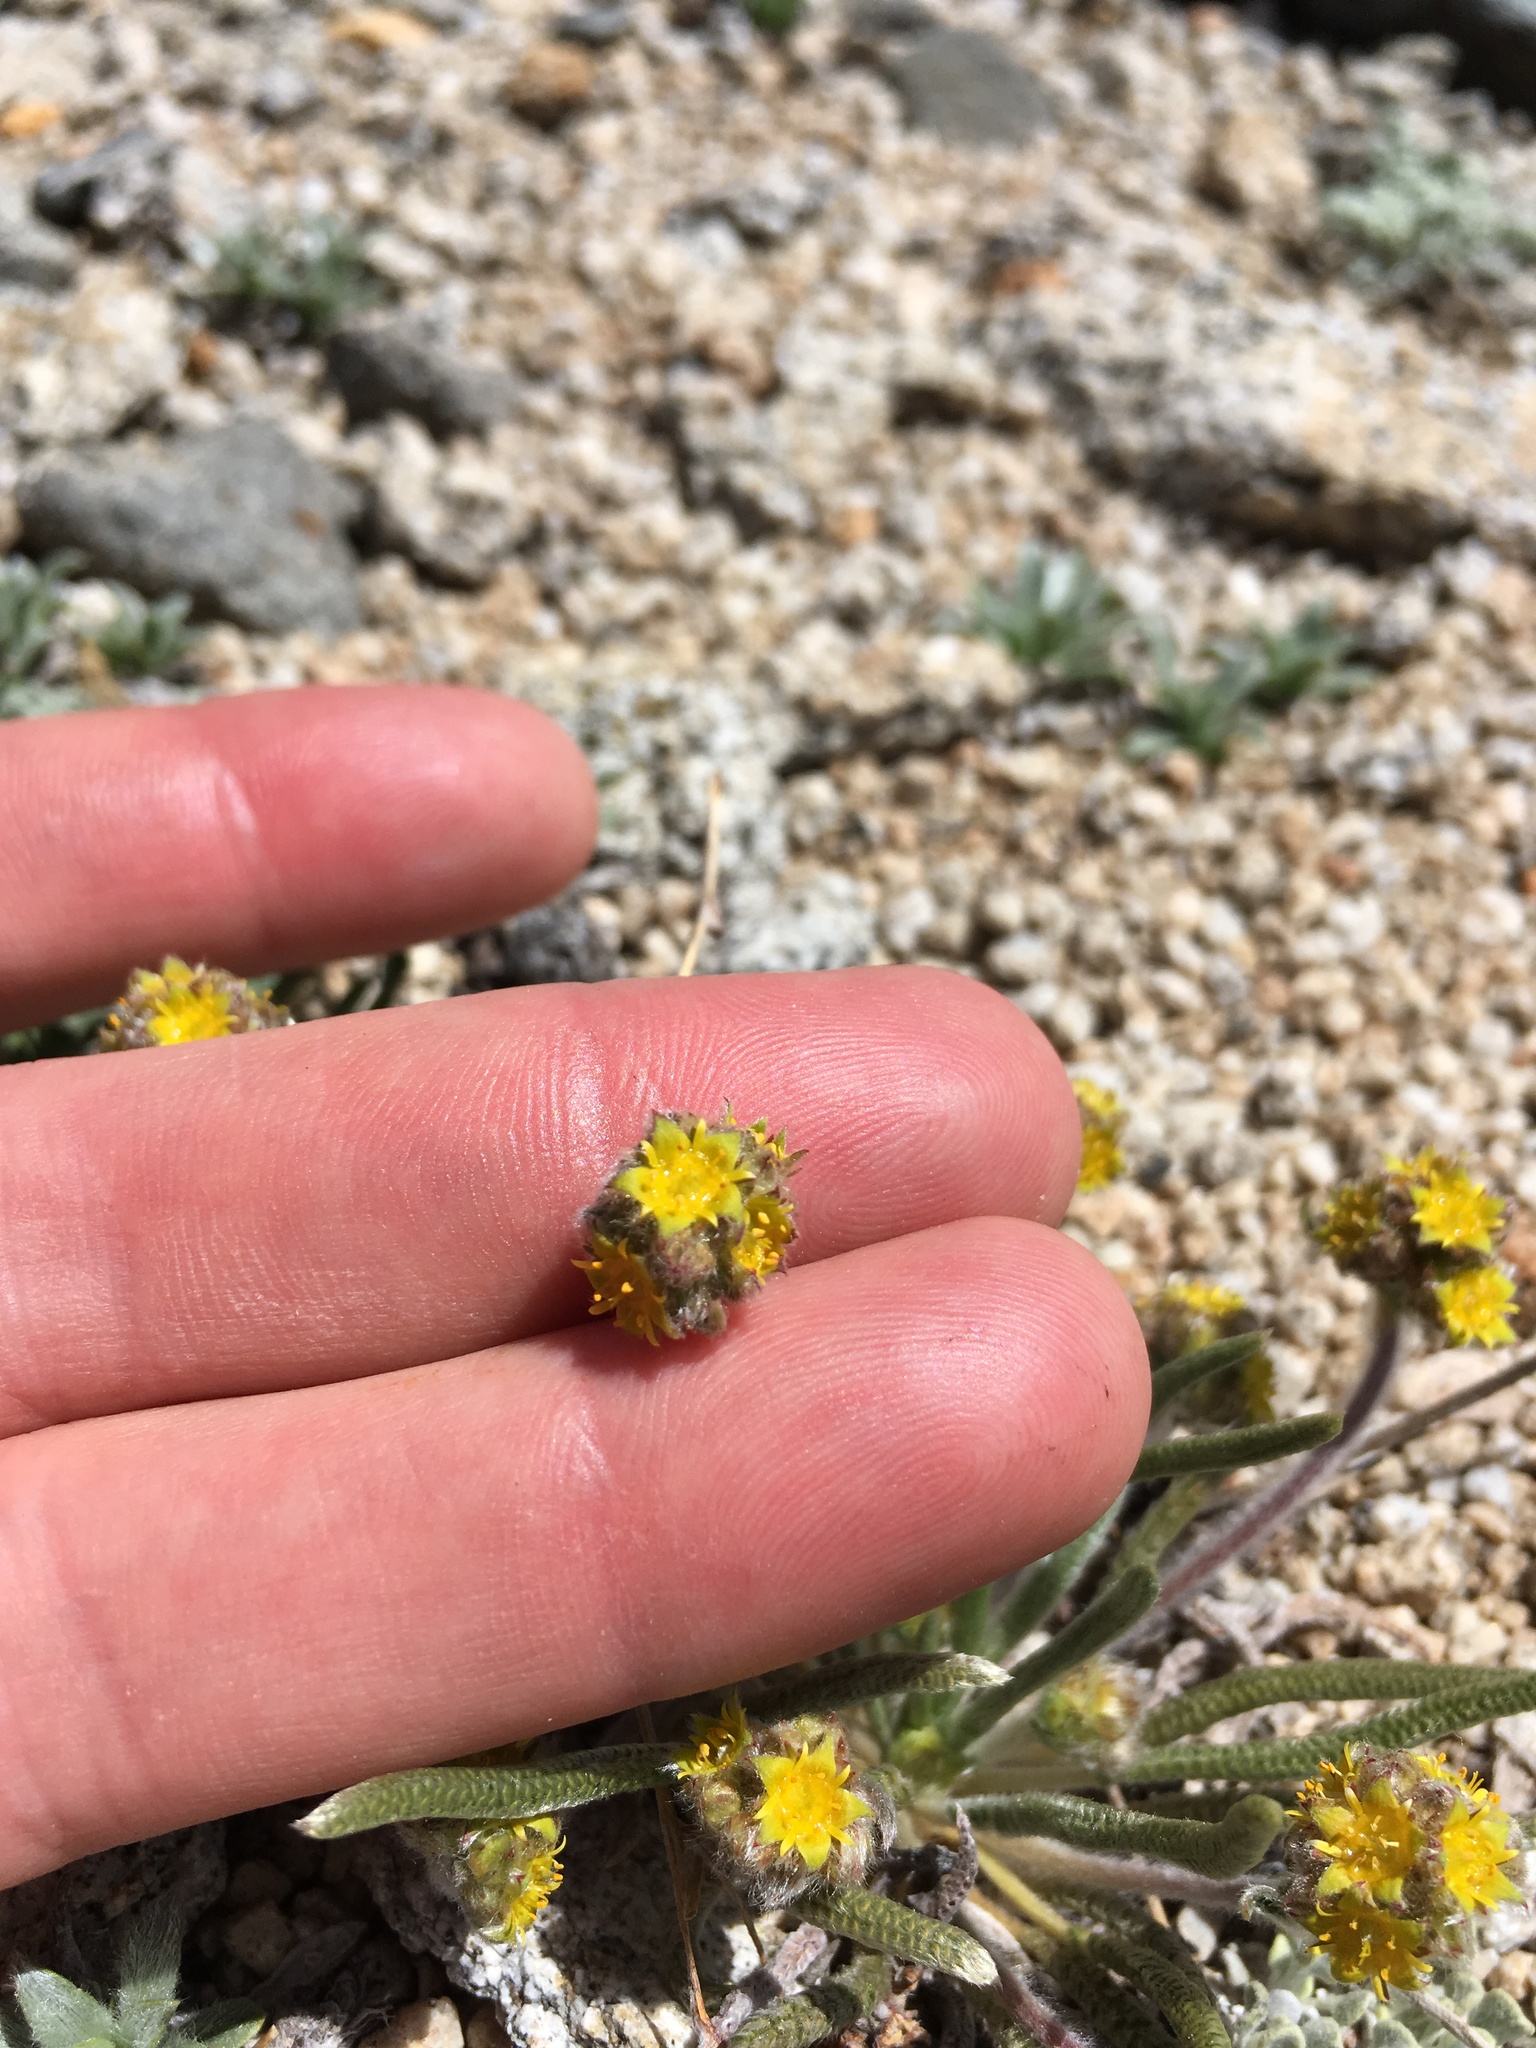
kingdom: Plantae
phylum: Tracheophyta
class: Magnoliopsida
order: Rosales
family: Rosaceae
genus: Potentilla
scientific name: Potentilla muirii
